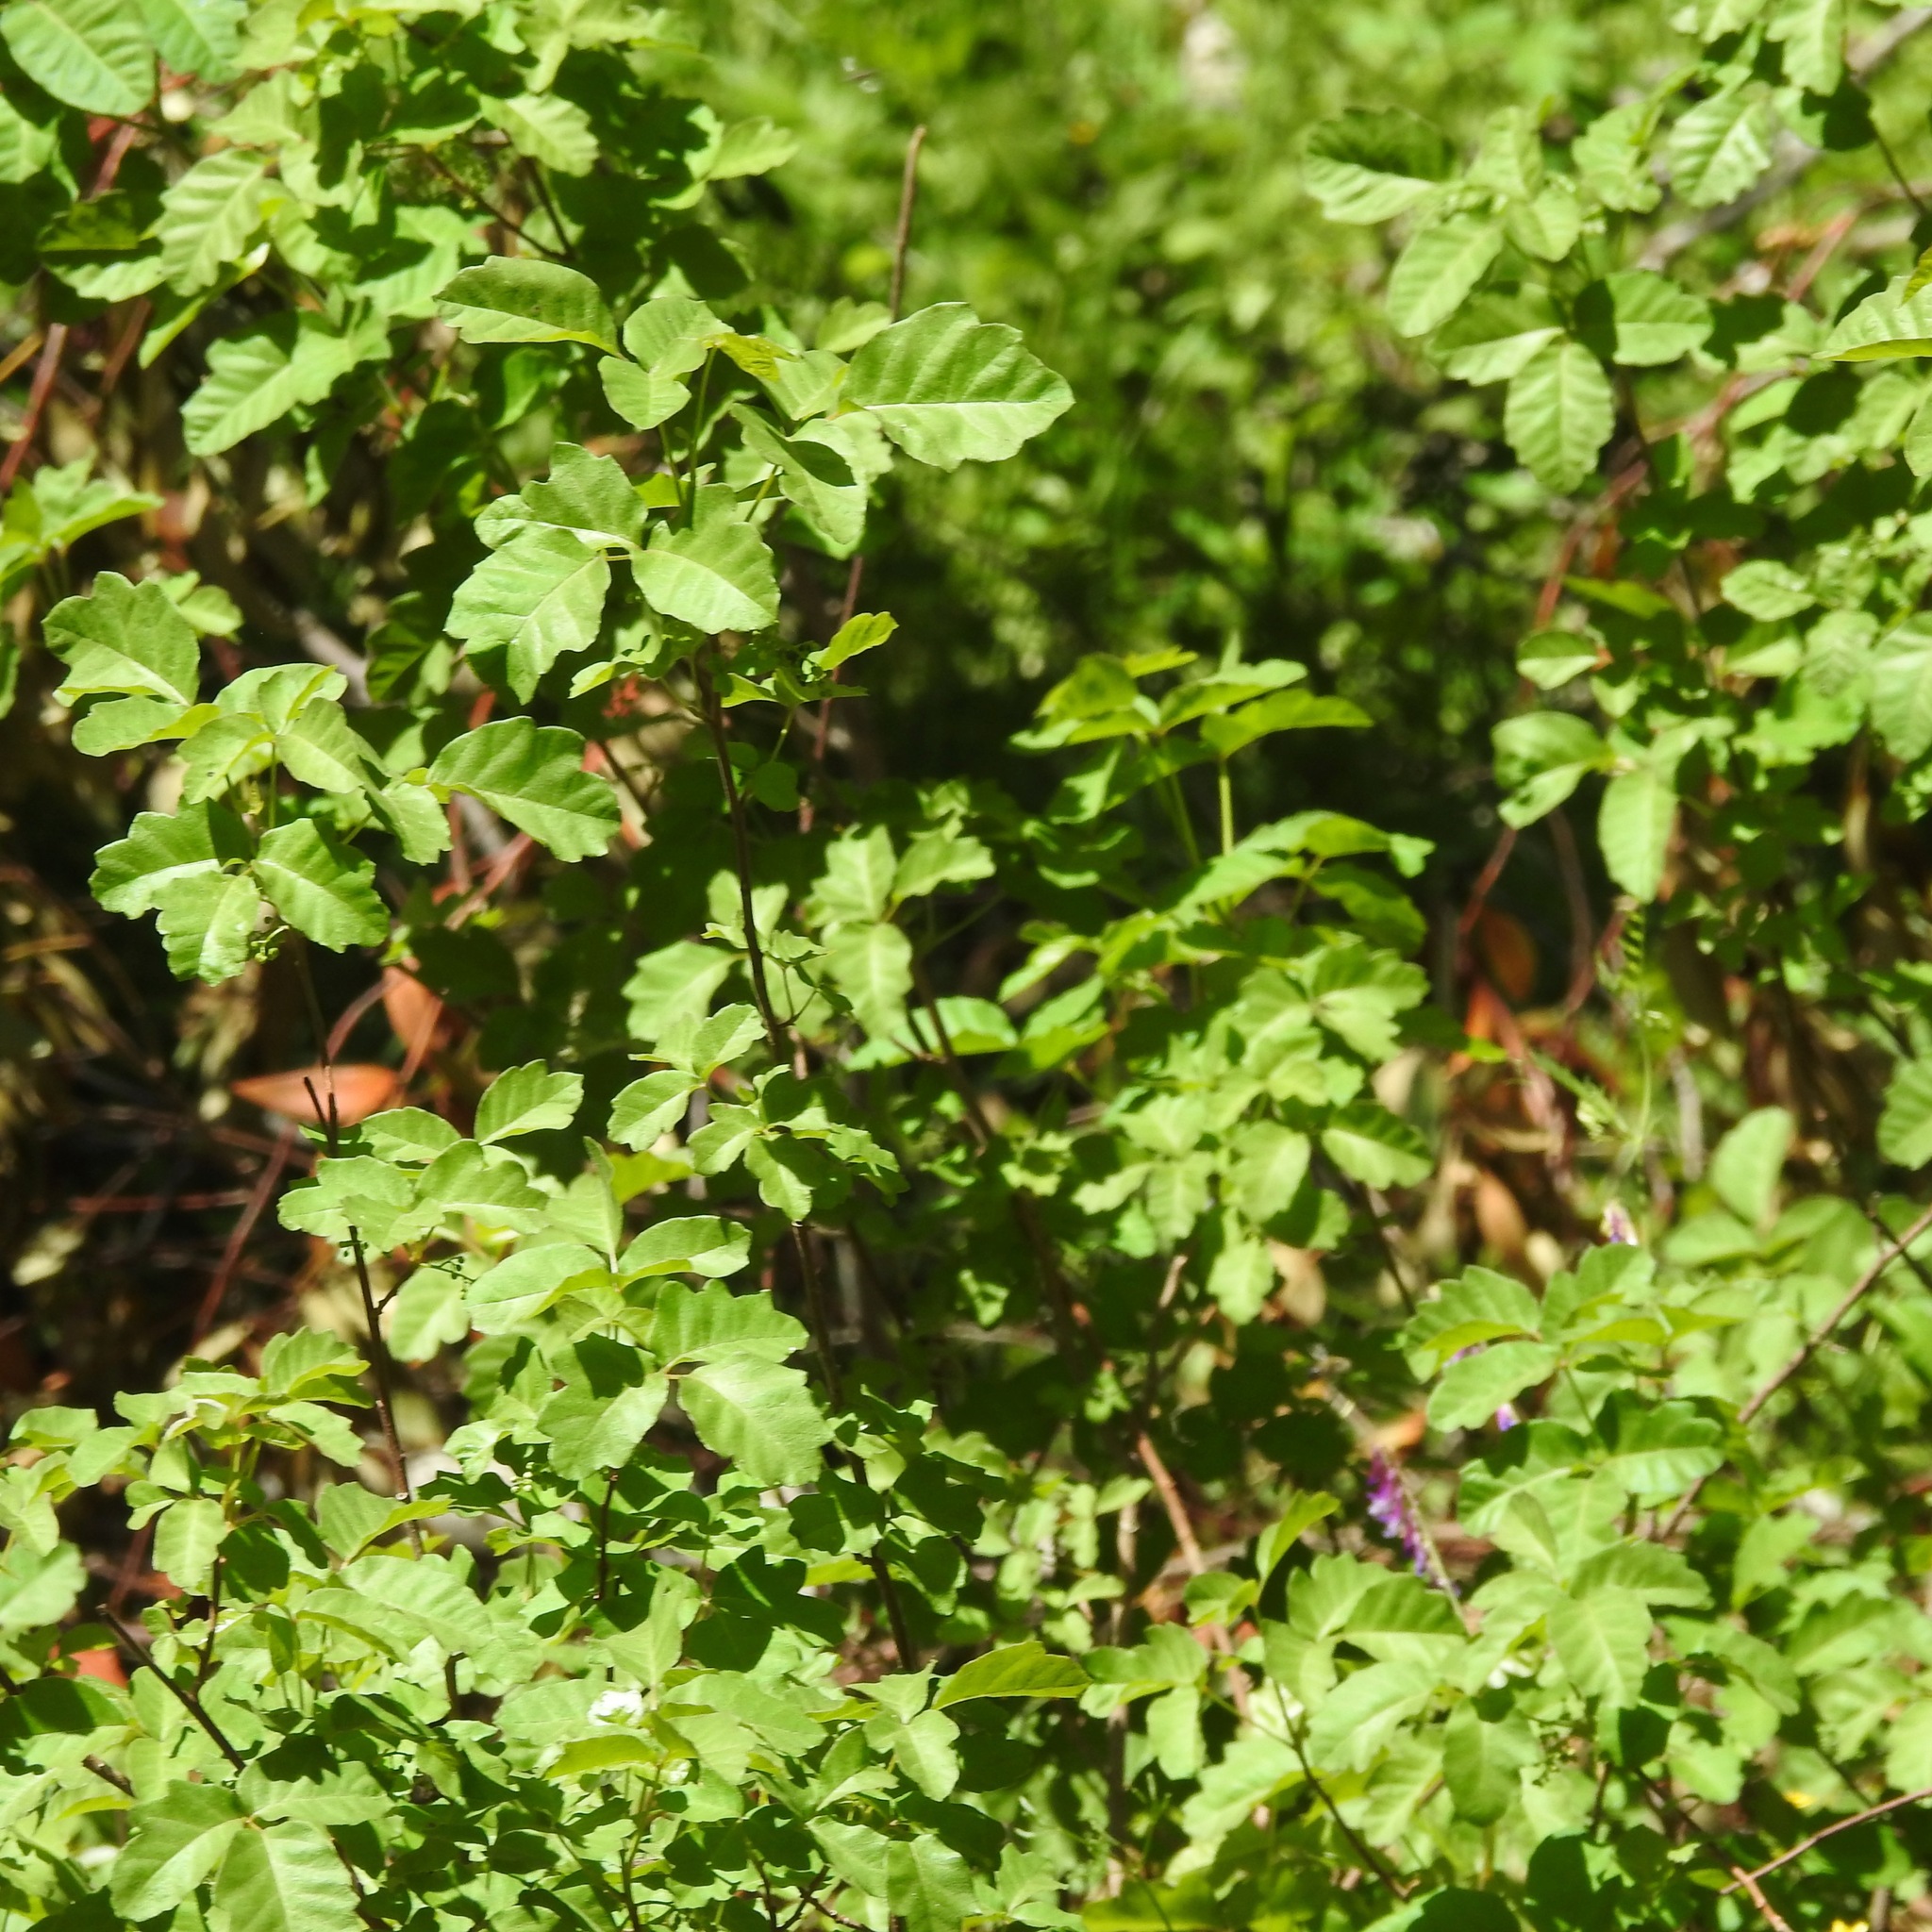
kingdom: Plantae
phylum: Tracheophyta
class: Magnoliopsida
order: Sapindales
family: Anacardiaceae
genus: Toxicodendron
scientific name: Toxicodendron diversilobum
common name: Pacific poison-oak
